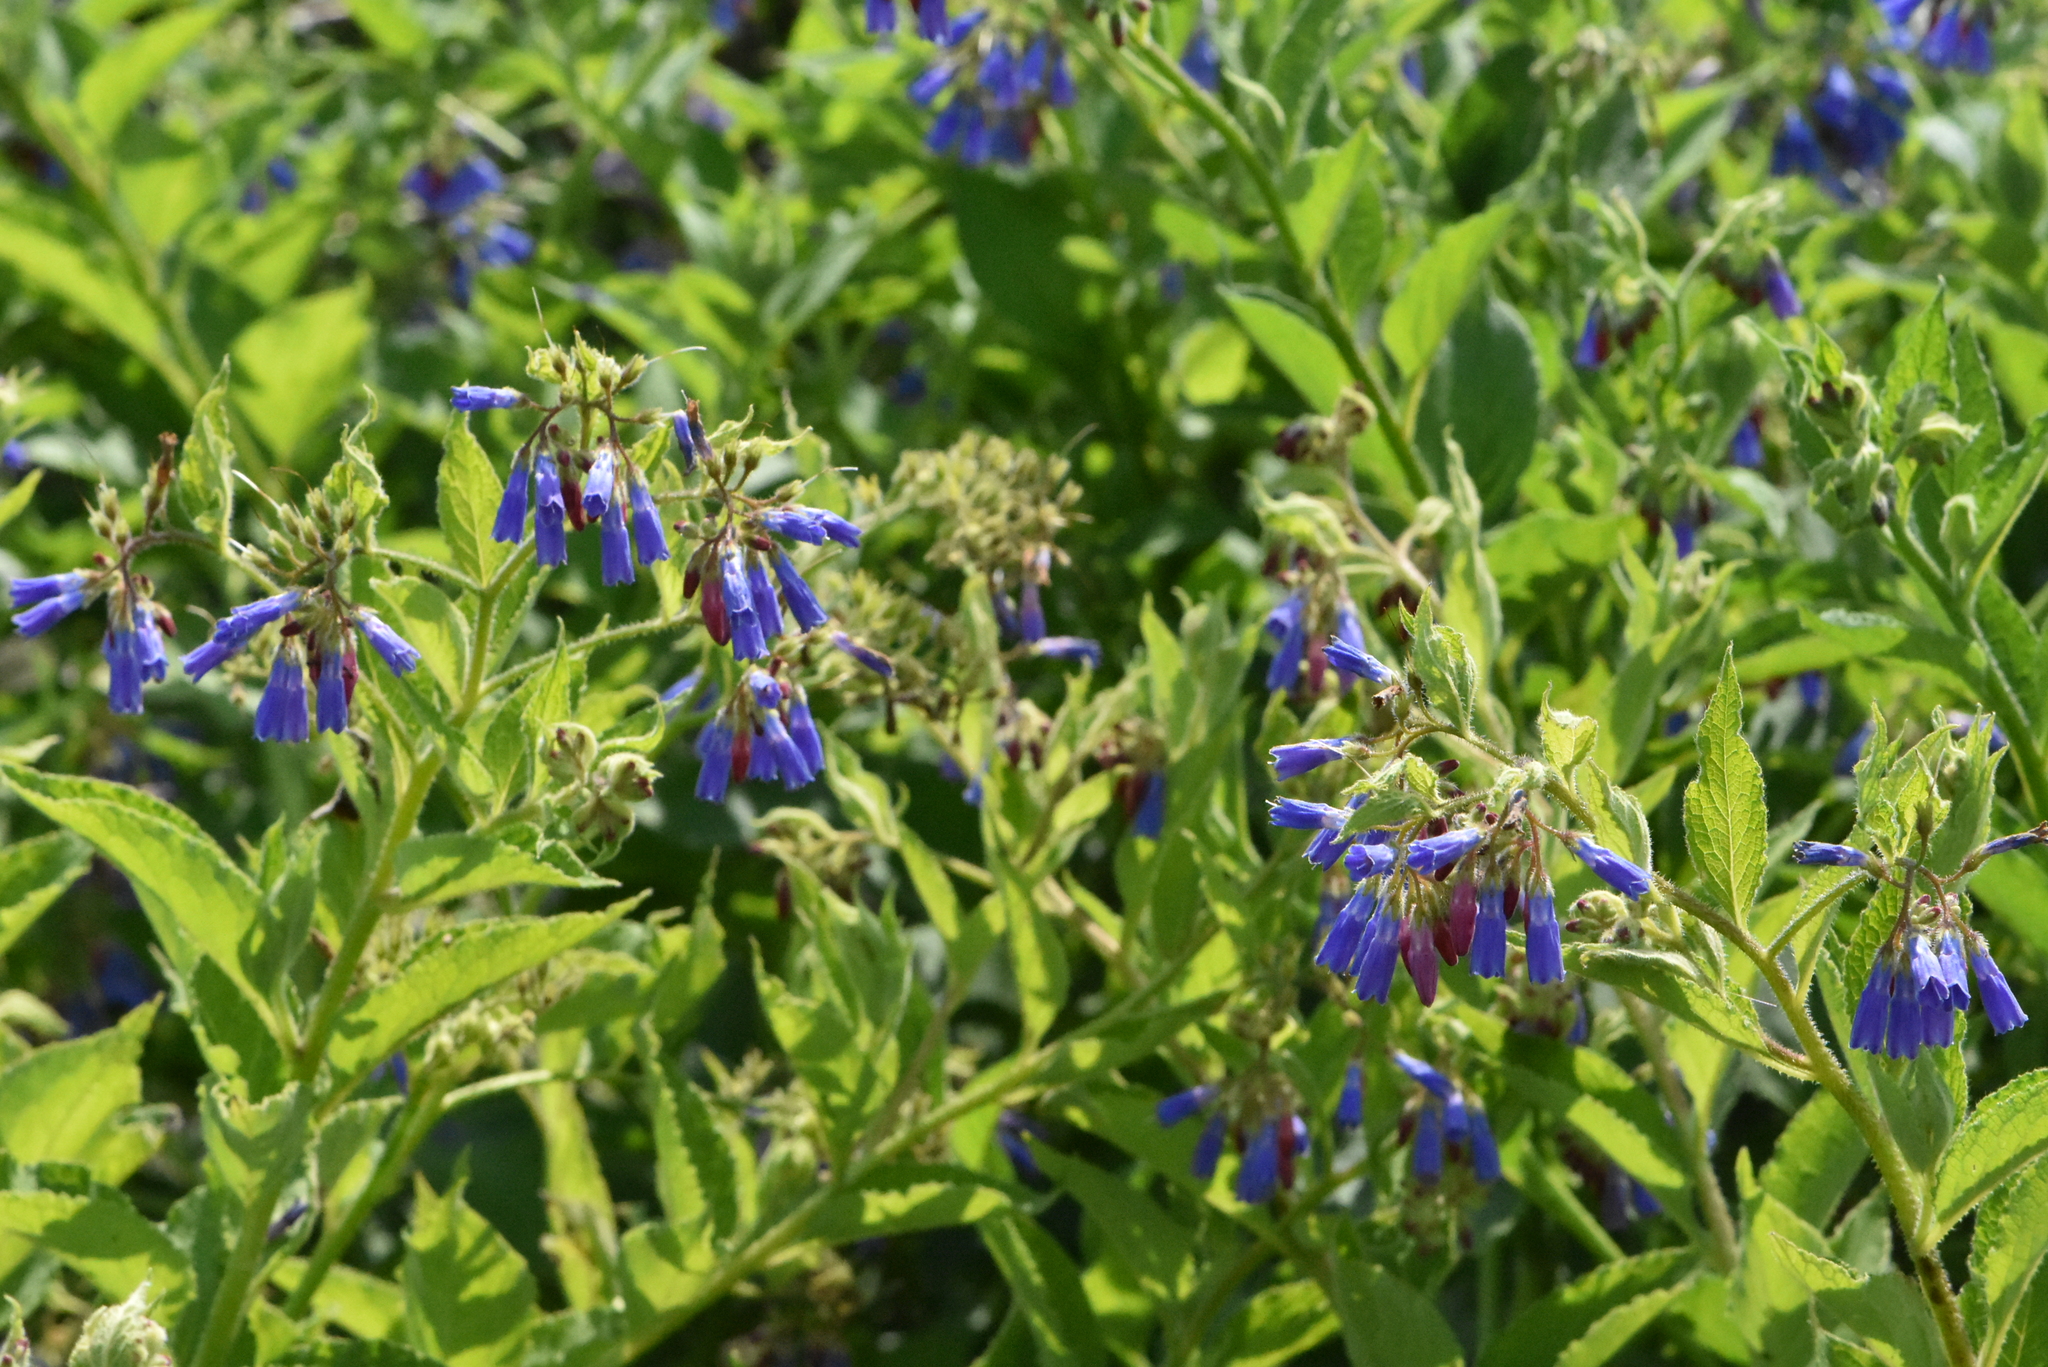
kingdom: Plantae
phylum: Tracheophyta
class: Magnoliopsida
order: Boraginales
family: Boraginaceae
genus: Symphytum
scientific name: Symphytum asperum
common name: Prickly comfrey
